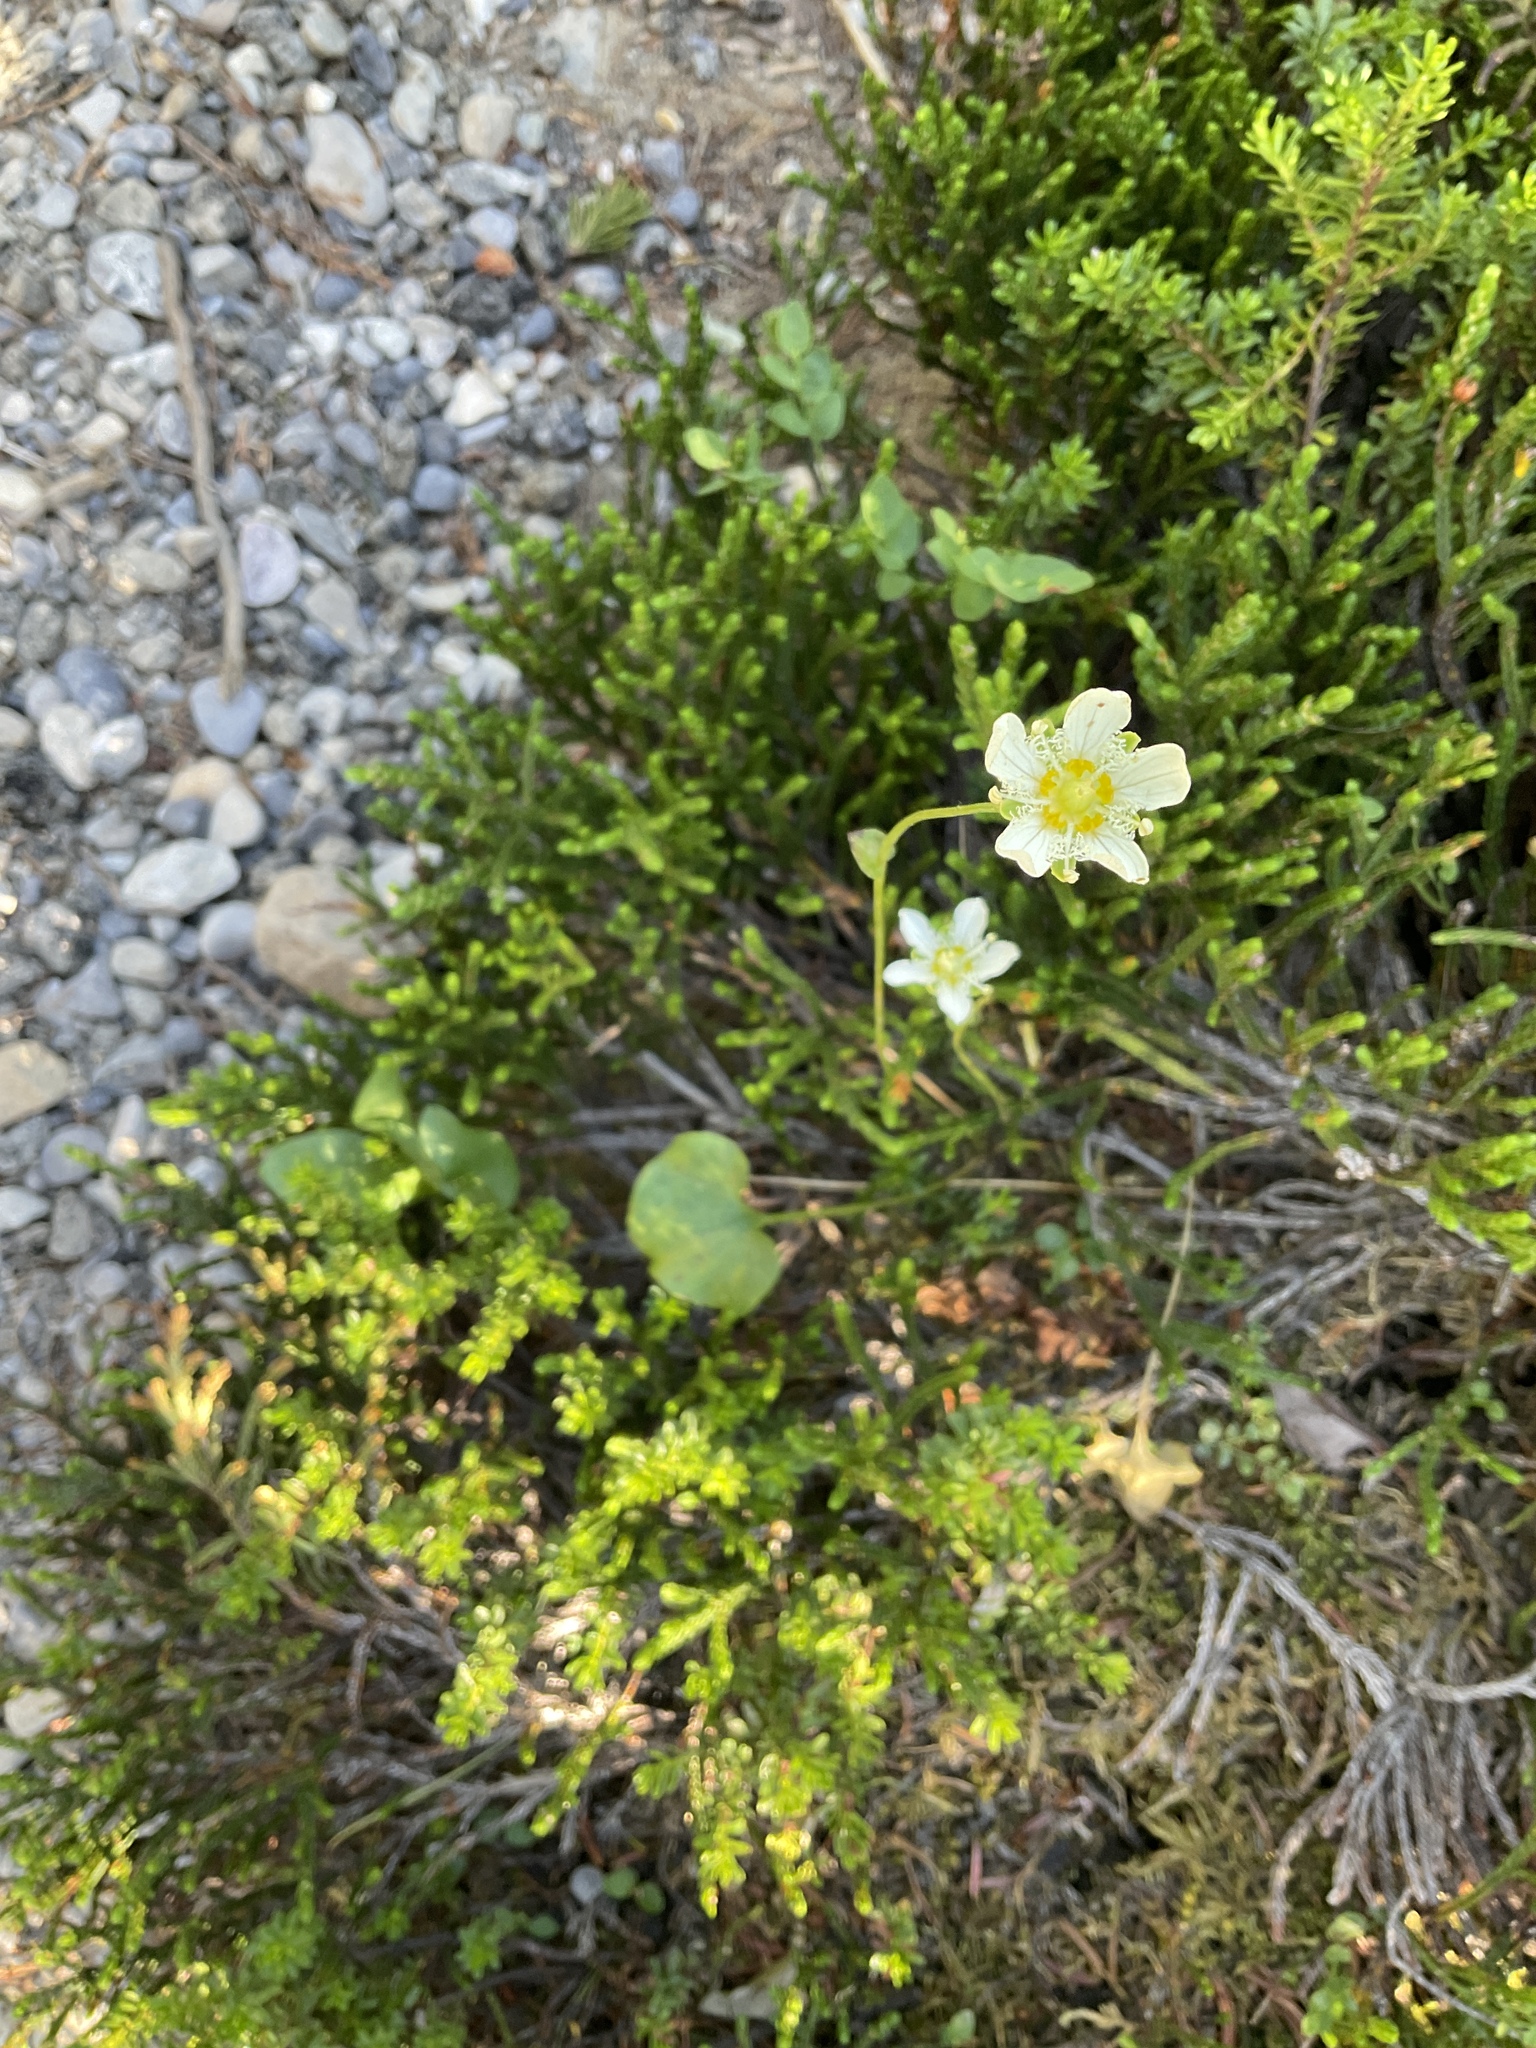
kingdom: Plantae
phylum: Tracheophyta
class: Magnoliopsida
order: Celastrales
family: Parnassiaceae
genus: Parnassia
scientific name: Parnassia fimbriata
